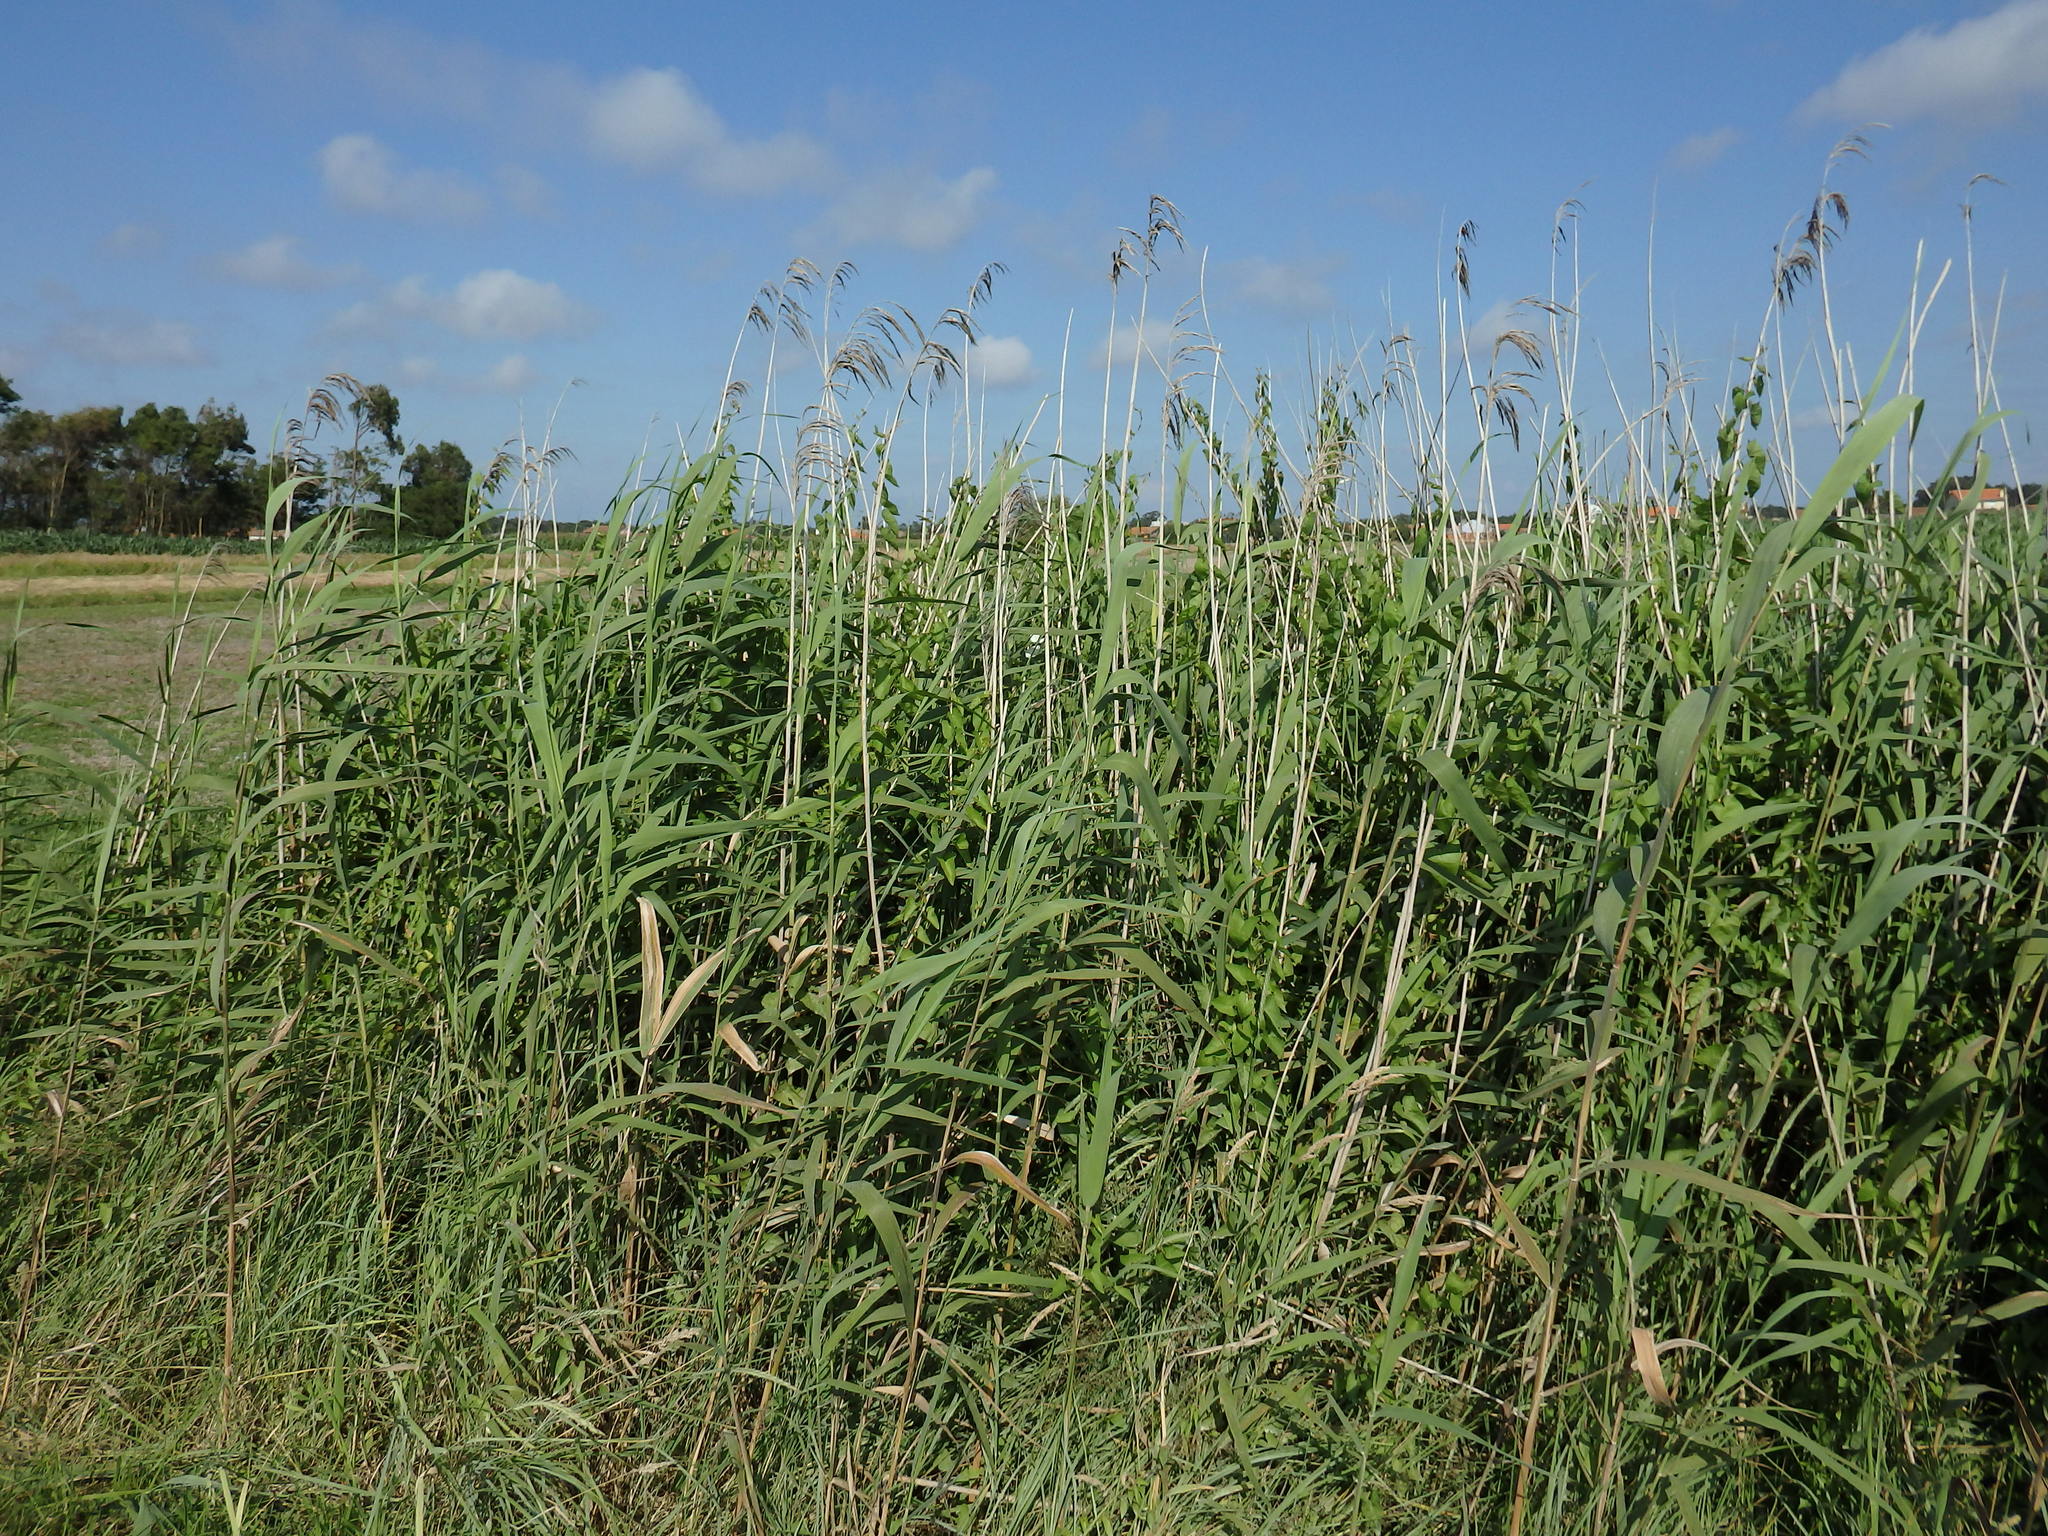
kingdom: Plantae
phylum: Tracheophyta
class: Liliopsida
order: Poales
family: Poaceae
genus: Phragmites
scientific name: Phragmites australis
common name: Common reed
